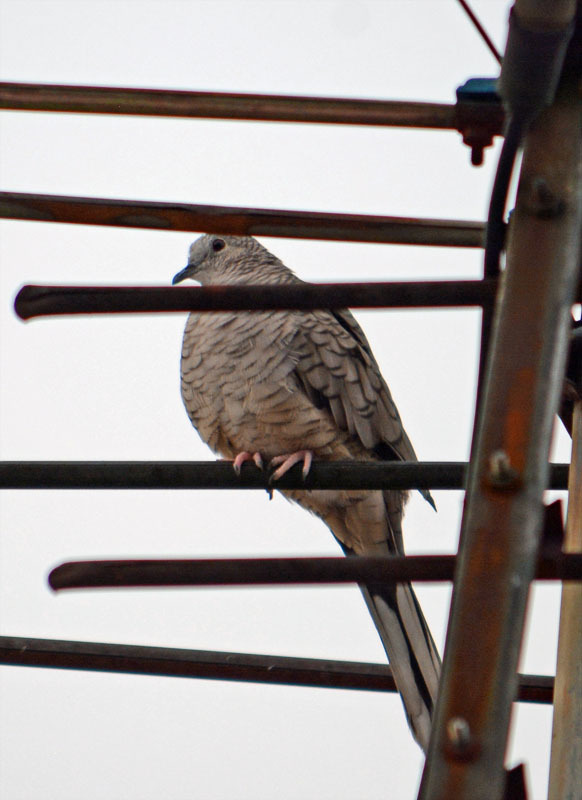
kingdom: Animalia
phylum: Chordata
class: Aves
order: Columbiformes
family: Columbidae
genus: Columbina
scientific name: Columbina inca
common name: Inca dove
